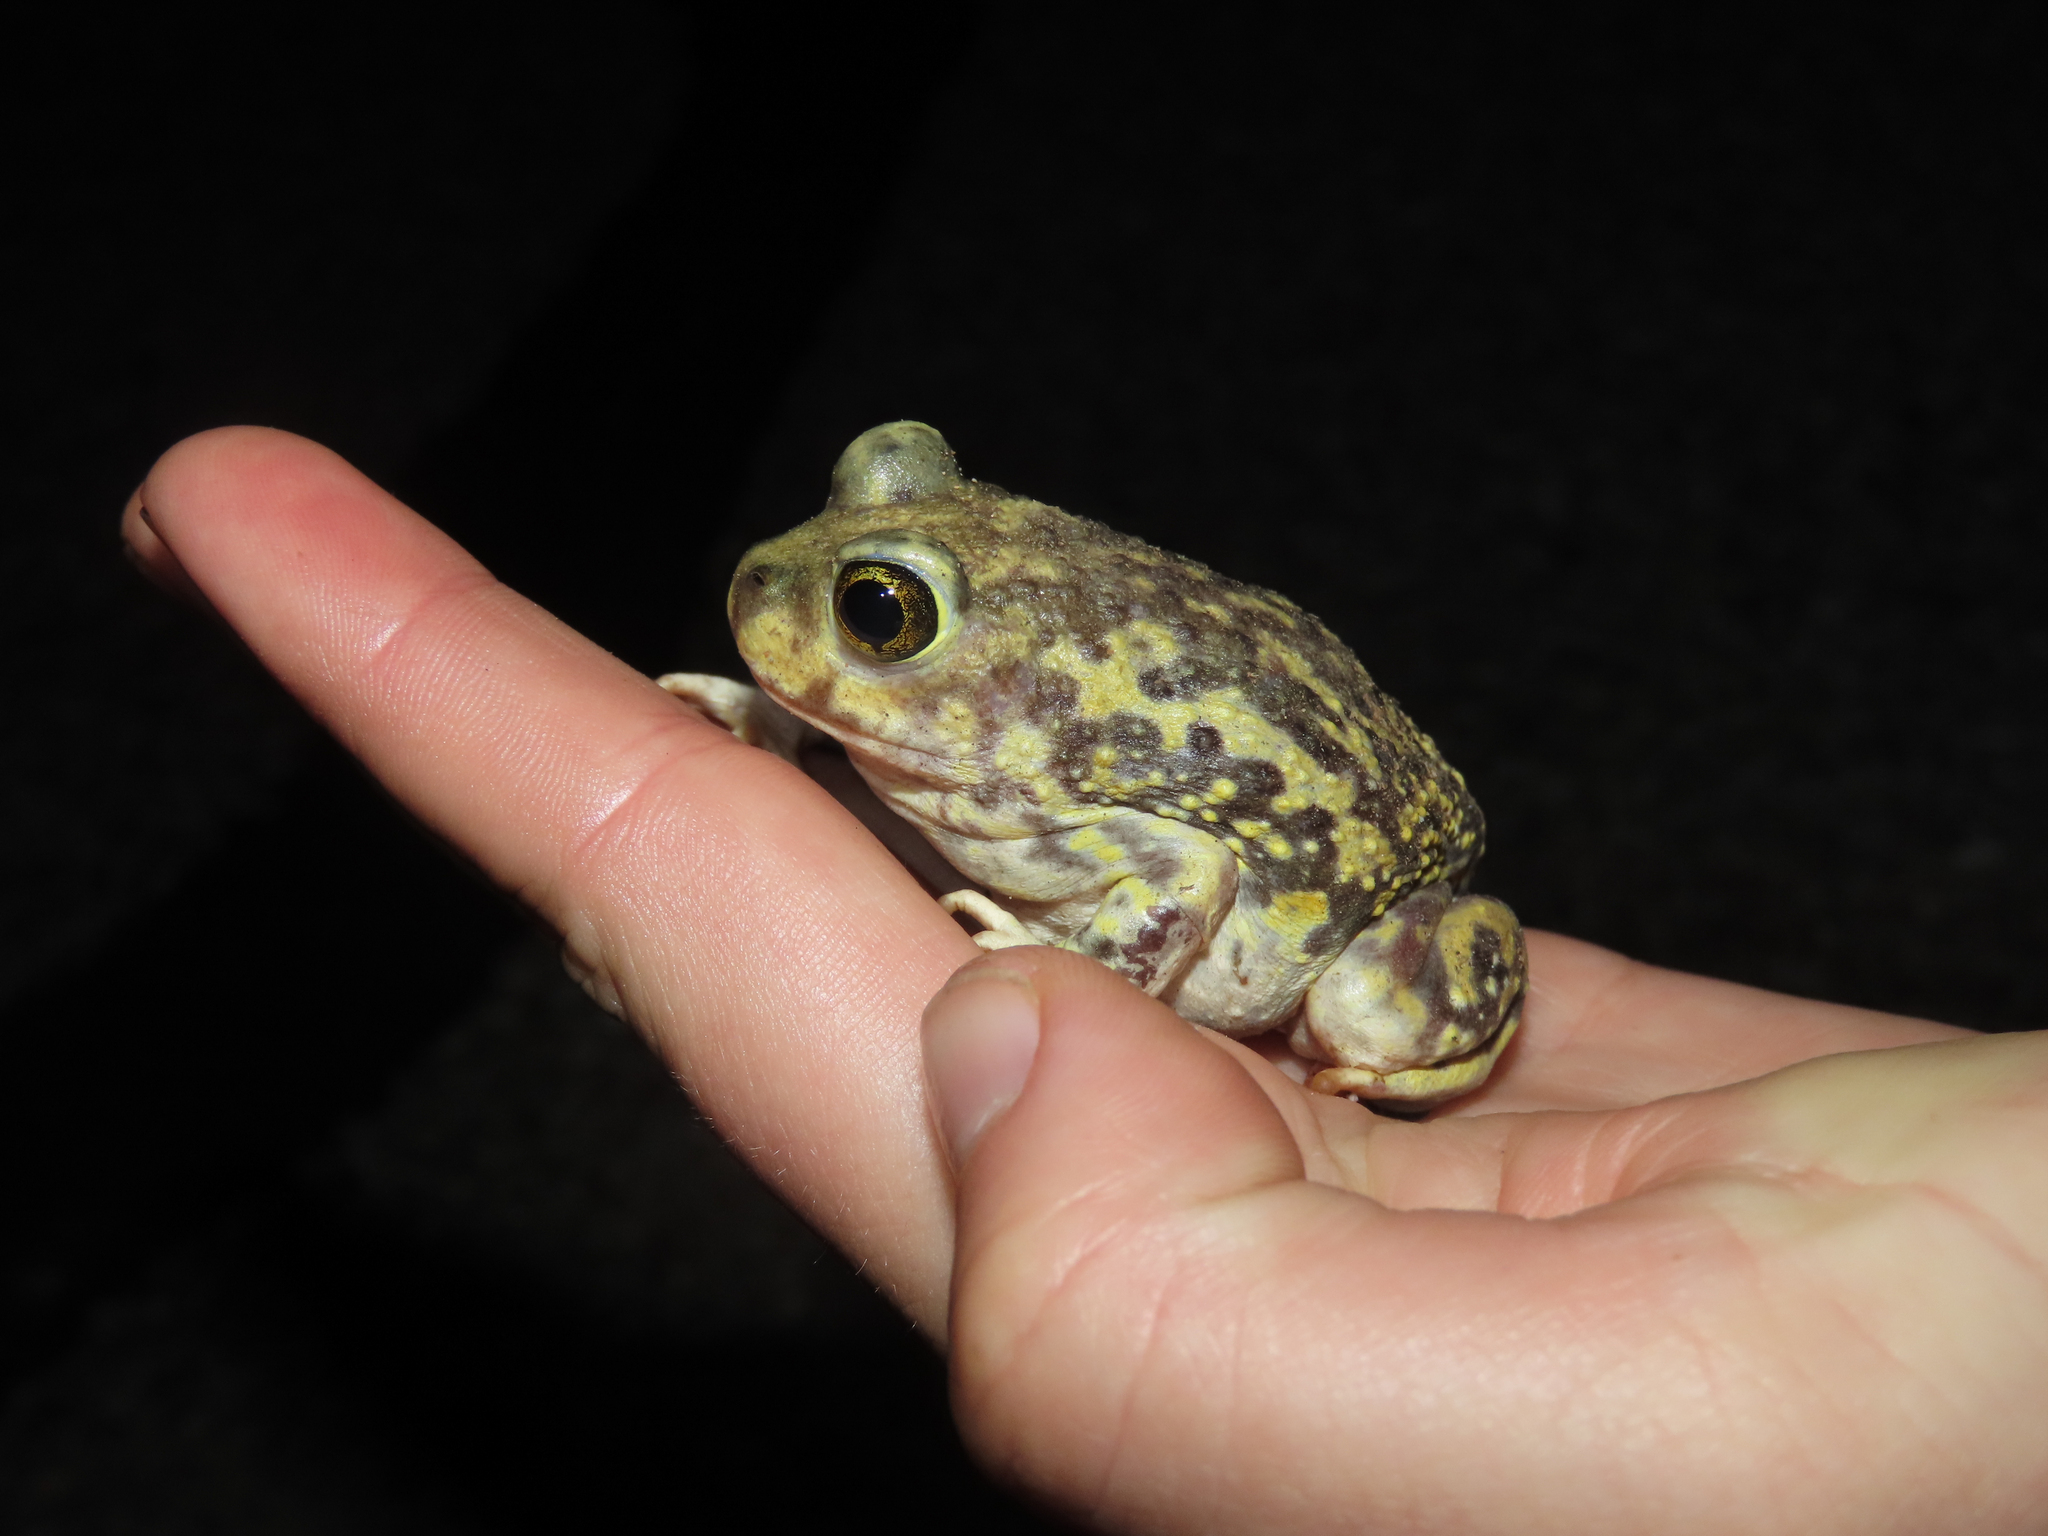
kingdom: Animalia
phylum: Chordata
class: Amphibia
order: Anura
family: Scaphiopodidae
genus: Scaphiopus
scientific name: Scaphiopus couchii
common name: Couch's spadefoot toad
